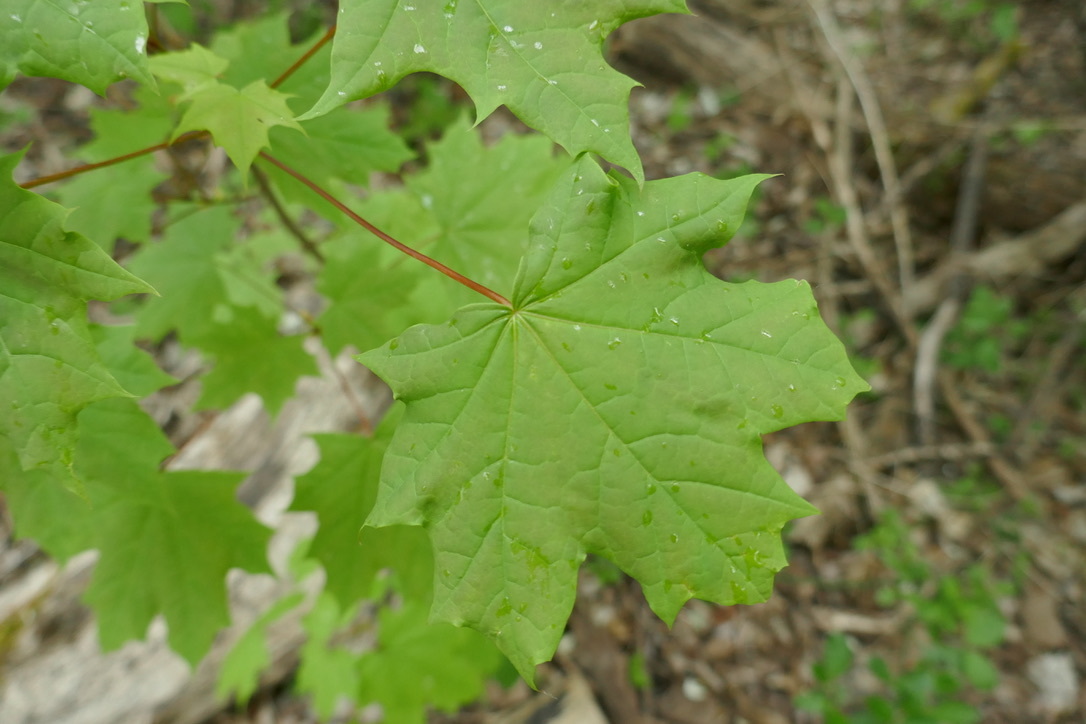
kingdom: Plantae
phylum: Tracheophyta
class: Magnoliopsida
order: Sapindales
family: Sapindaceae
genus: Acer
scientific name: Acer platanoides
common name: Norway maple
